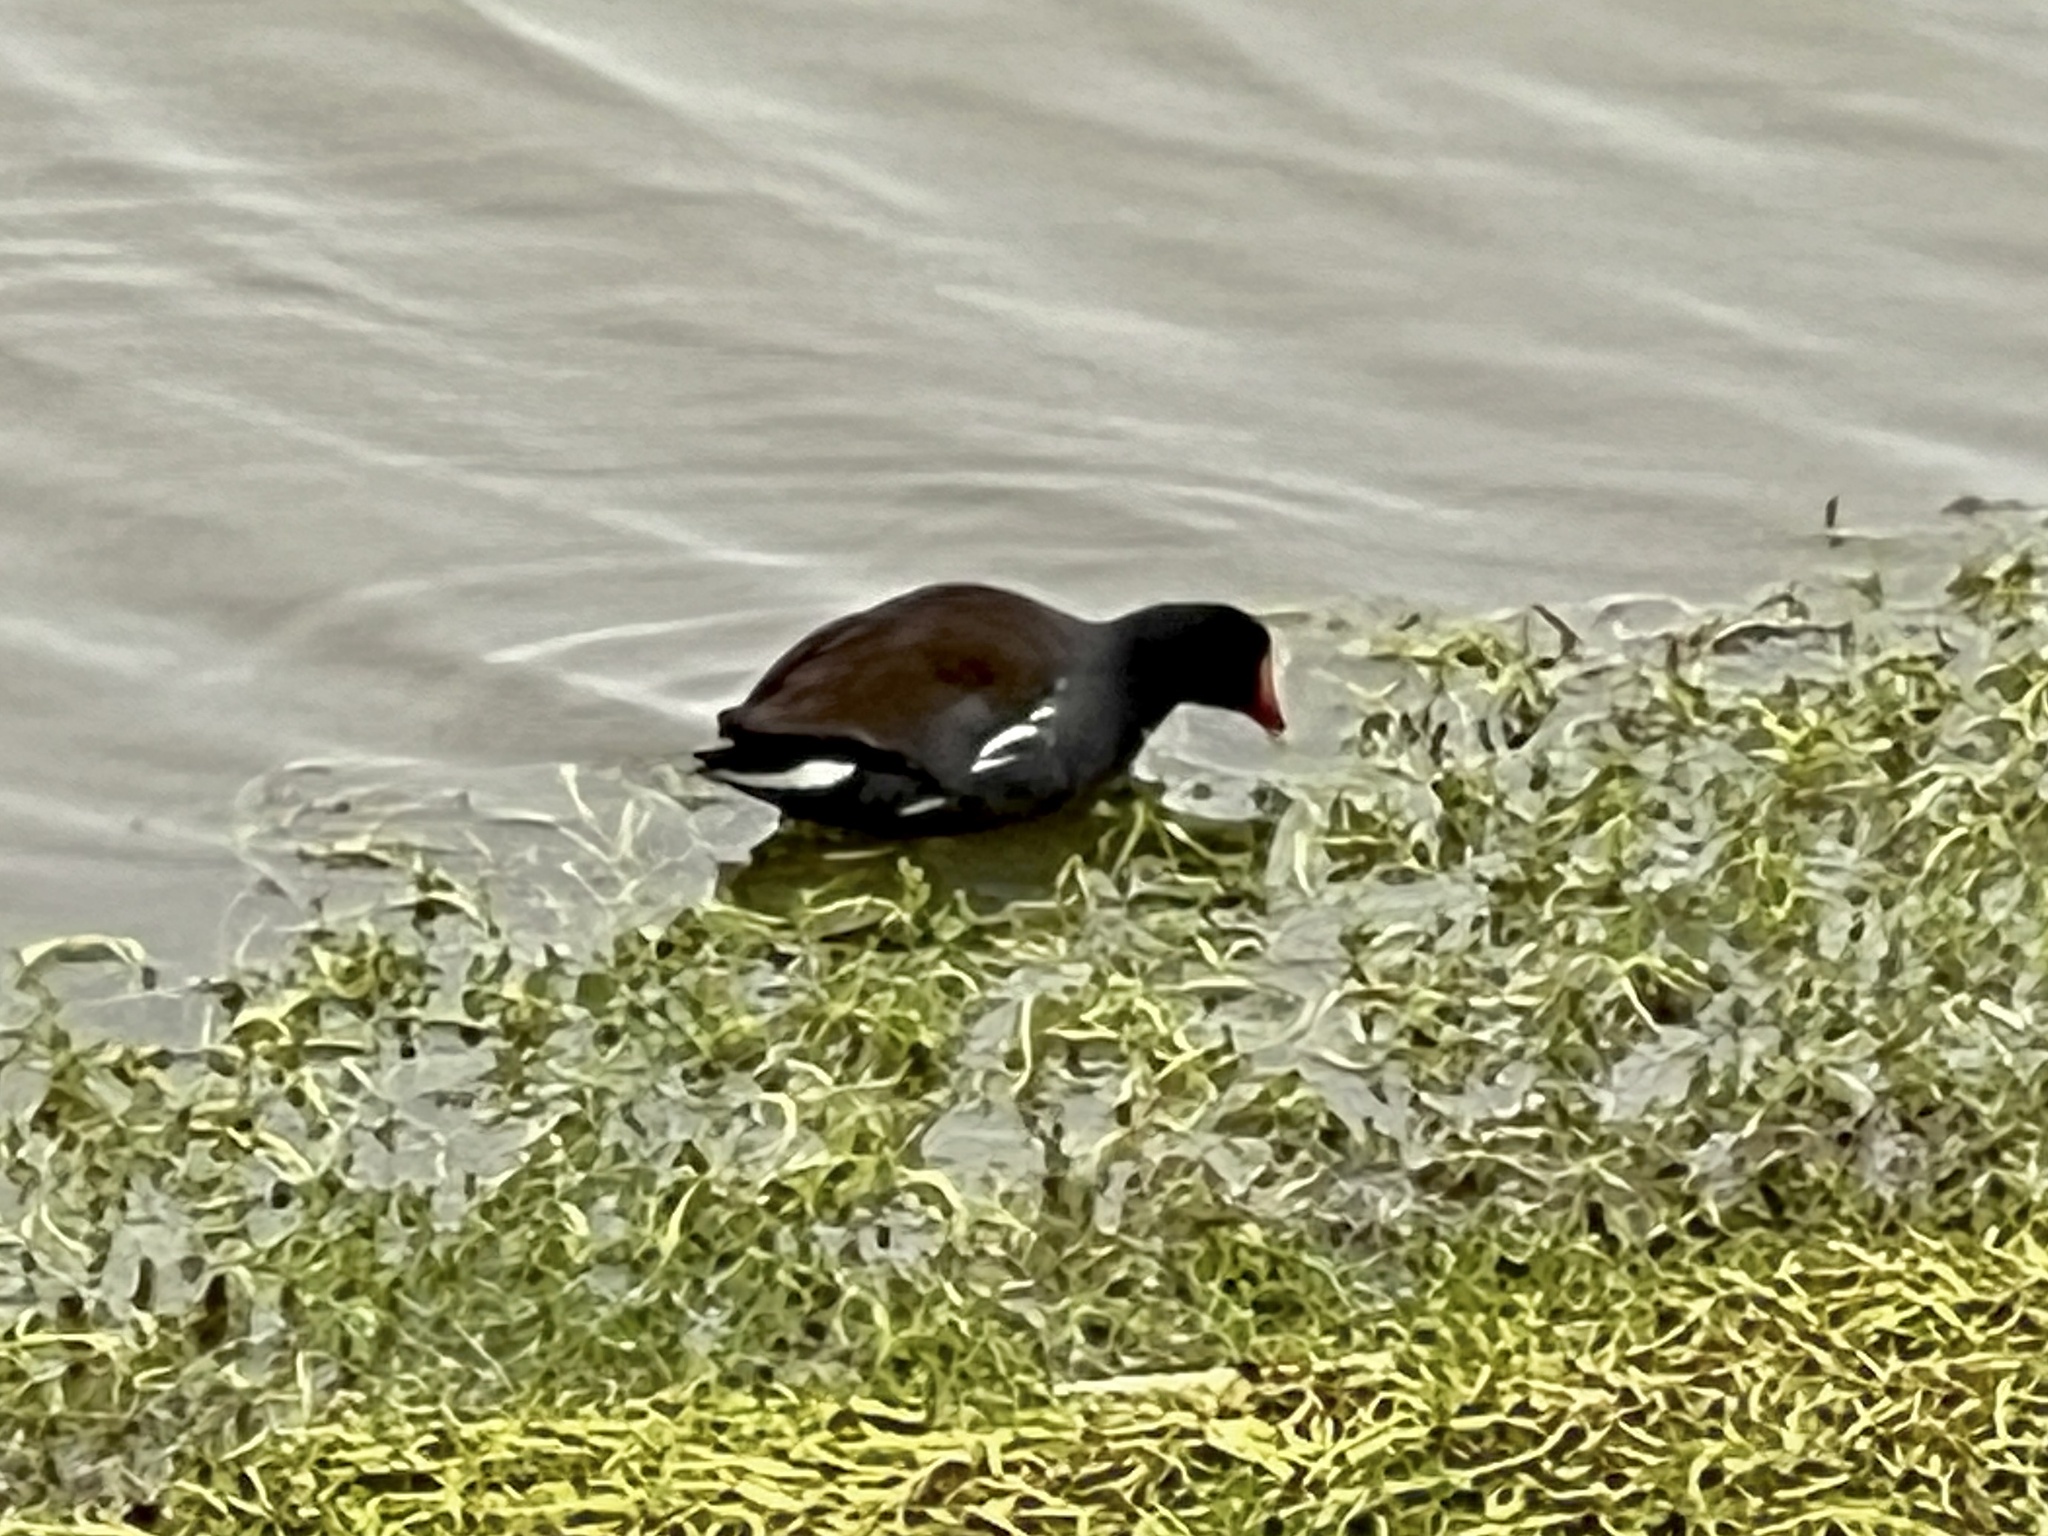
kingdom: Animalia
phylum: Chordata
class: Aves
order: Gruiformes
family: Rallidae
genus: Gallinula
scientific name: Gallinula chloropus
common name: Common moorhen
